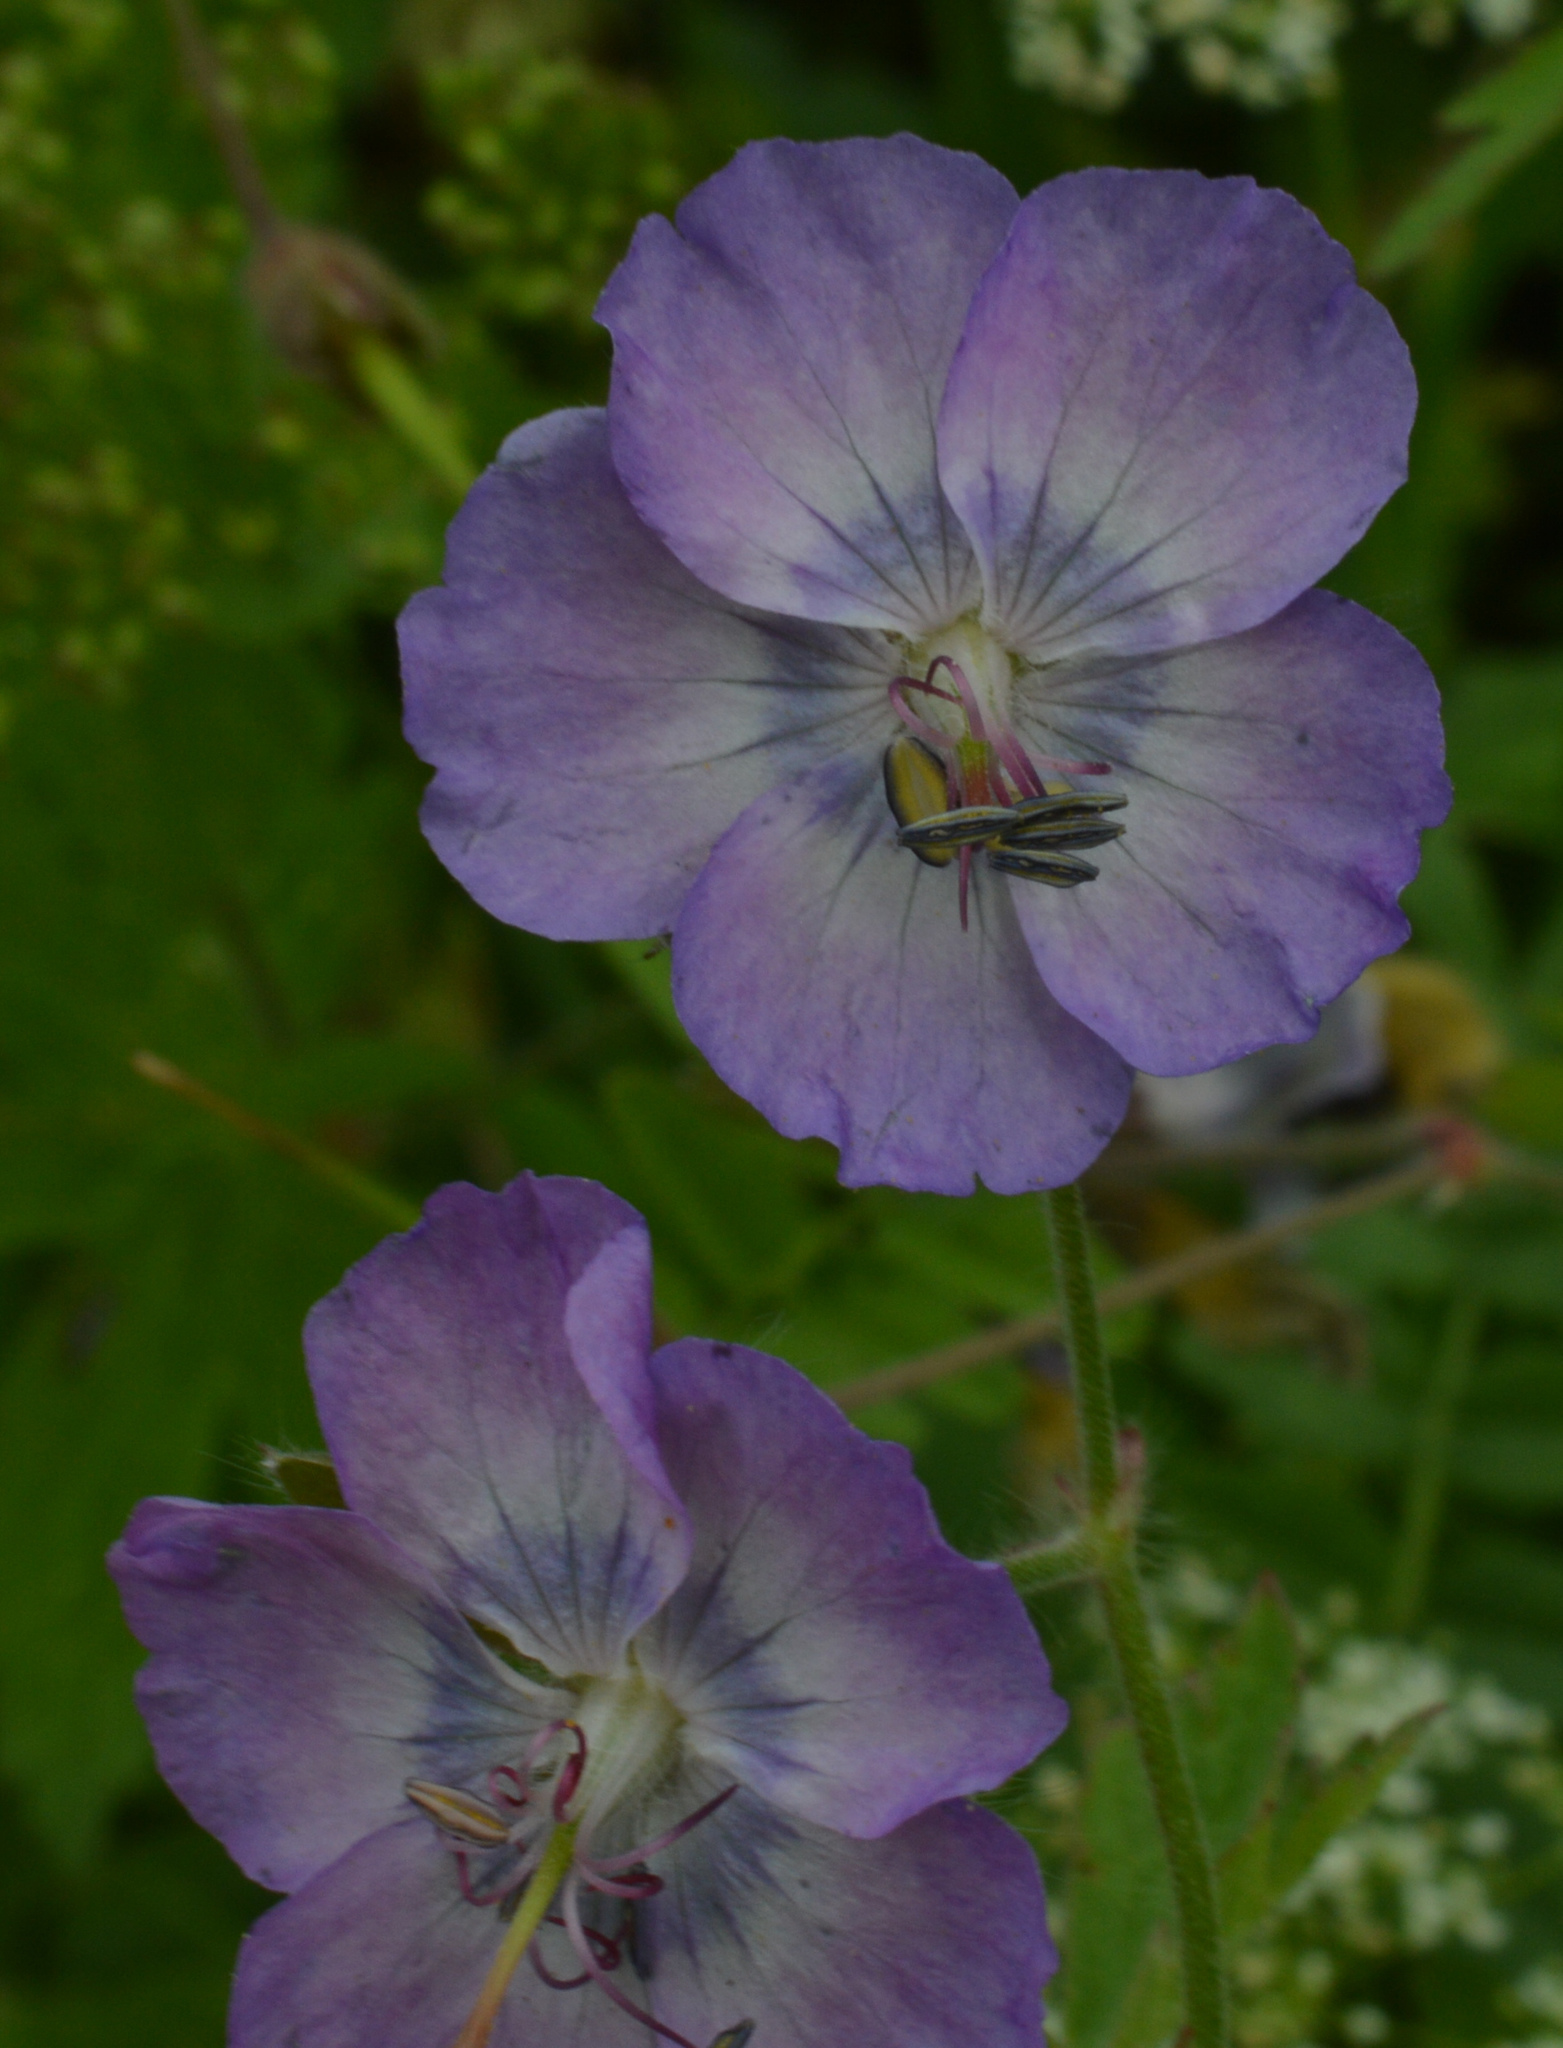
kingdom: Plantae
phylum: Tracheophyta
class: Magnoliopsida
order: Geraniales
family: Geraniaceae
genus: Geranium
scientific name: Geranium phaeum
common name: Dusky crane's-bill
